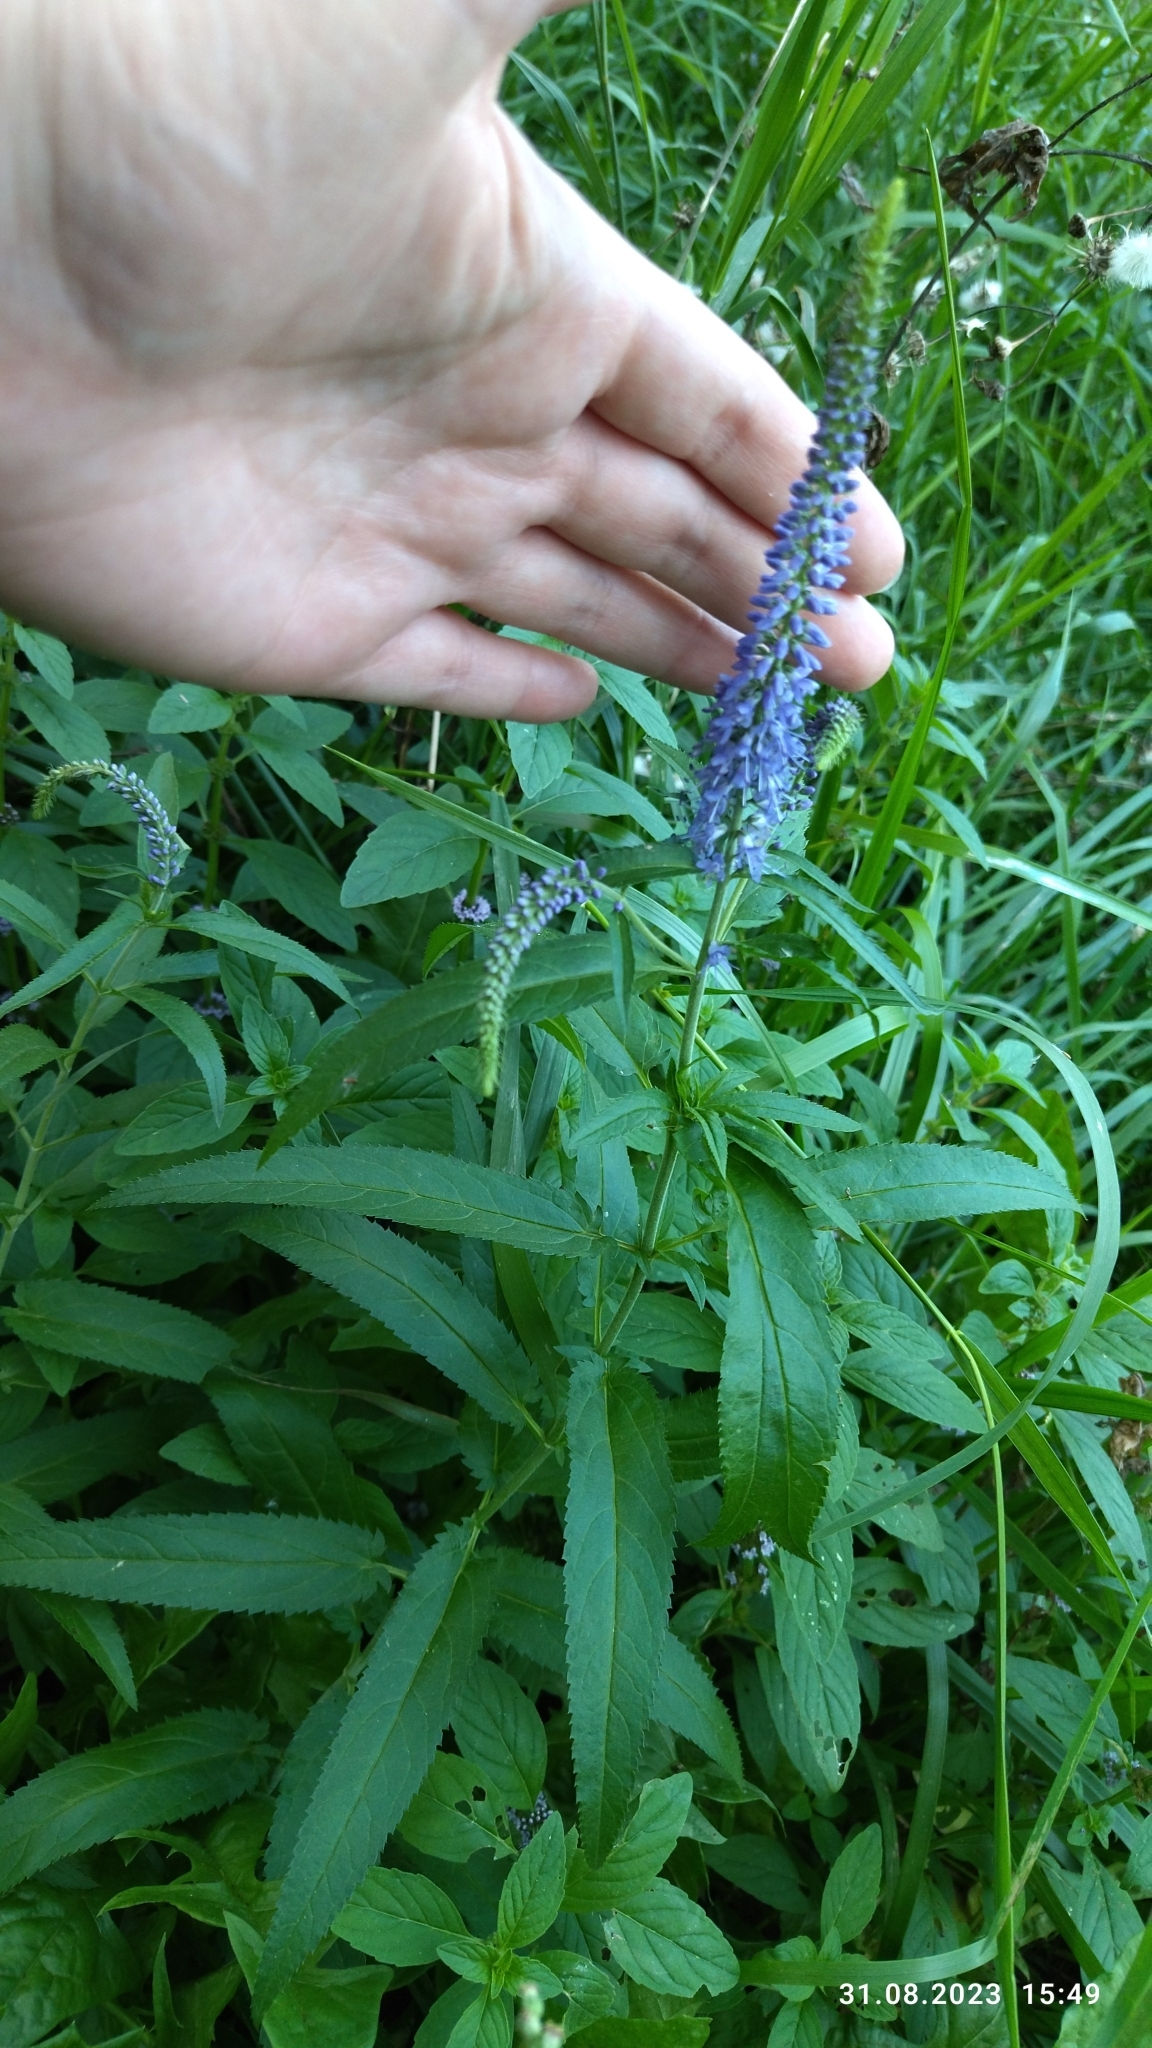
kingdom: Plantae
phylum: Tracheophyta
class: Magnoliopsida
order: Lamiales
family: Plantaginaceae
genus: Veronica
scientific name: Veronica longifolia
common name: Garden speedwell
